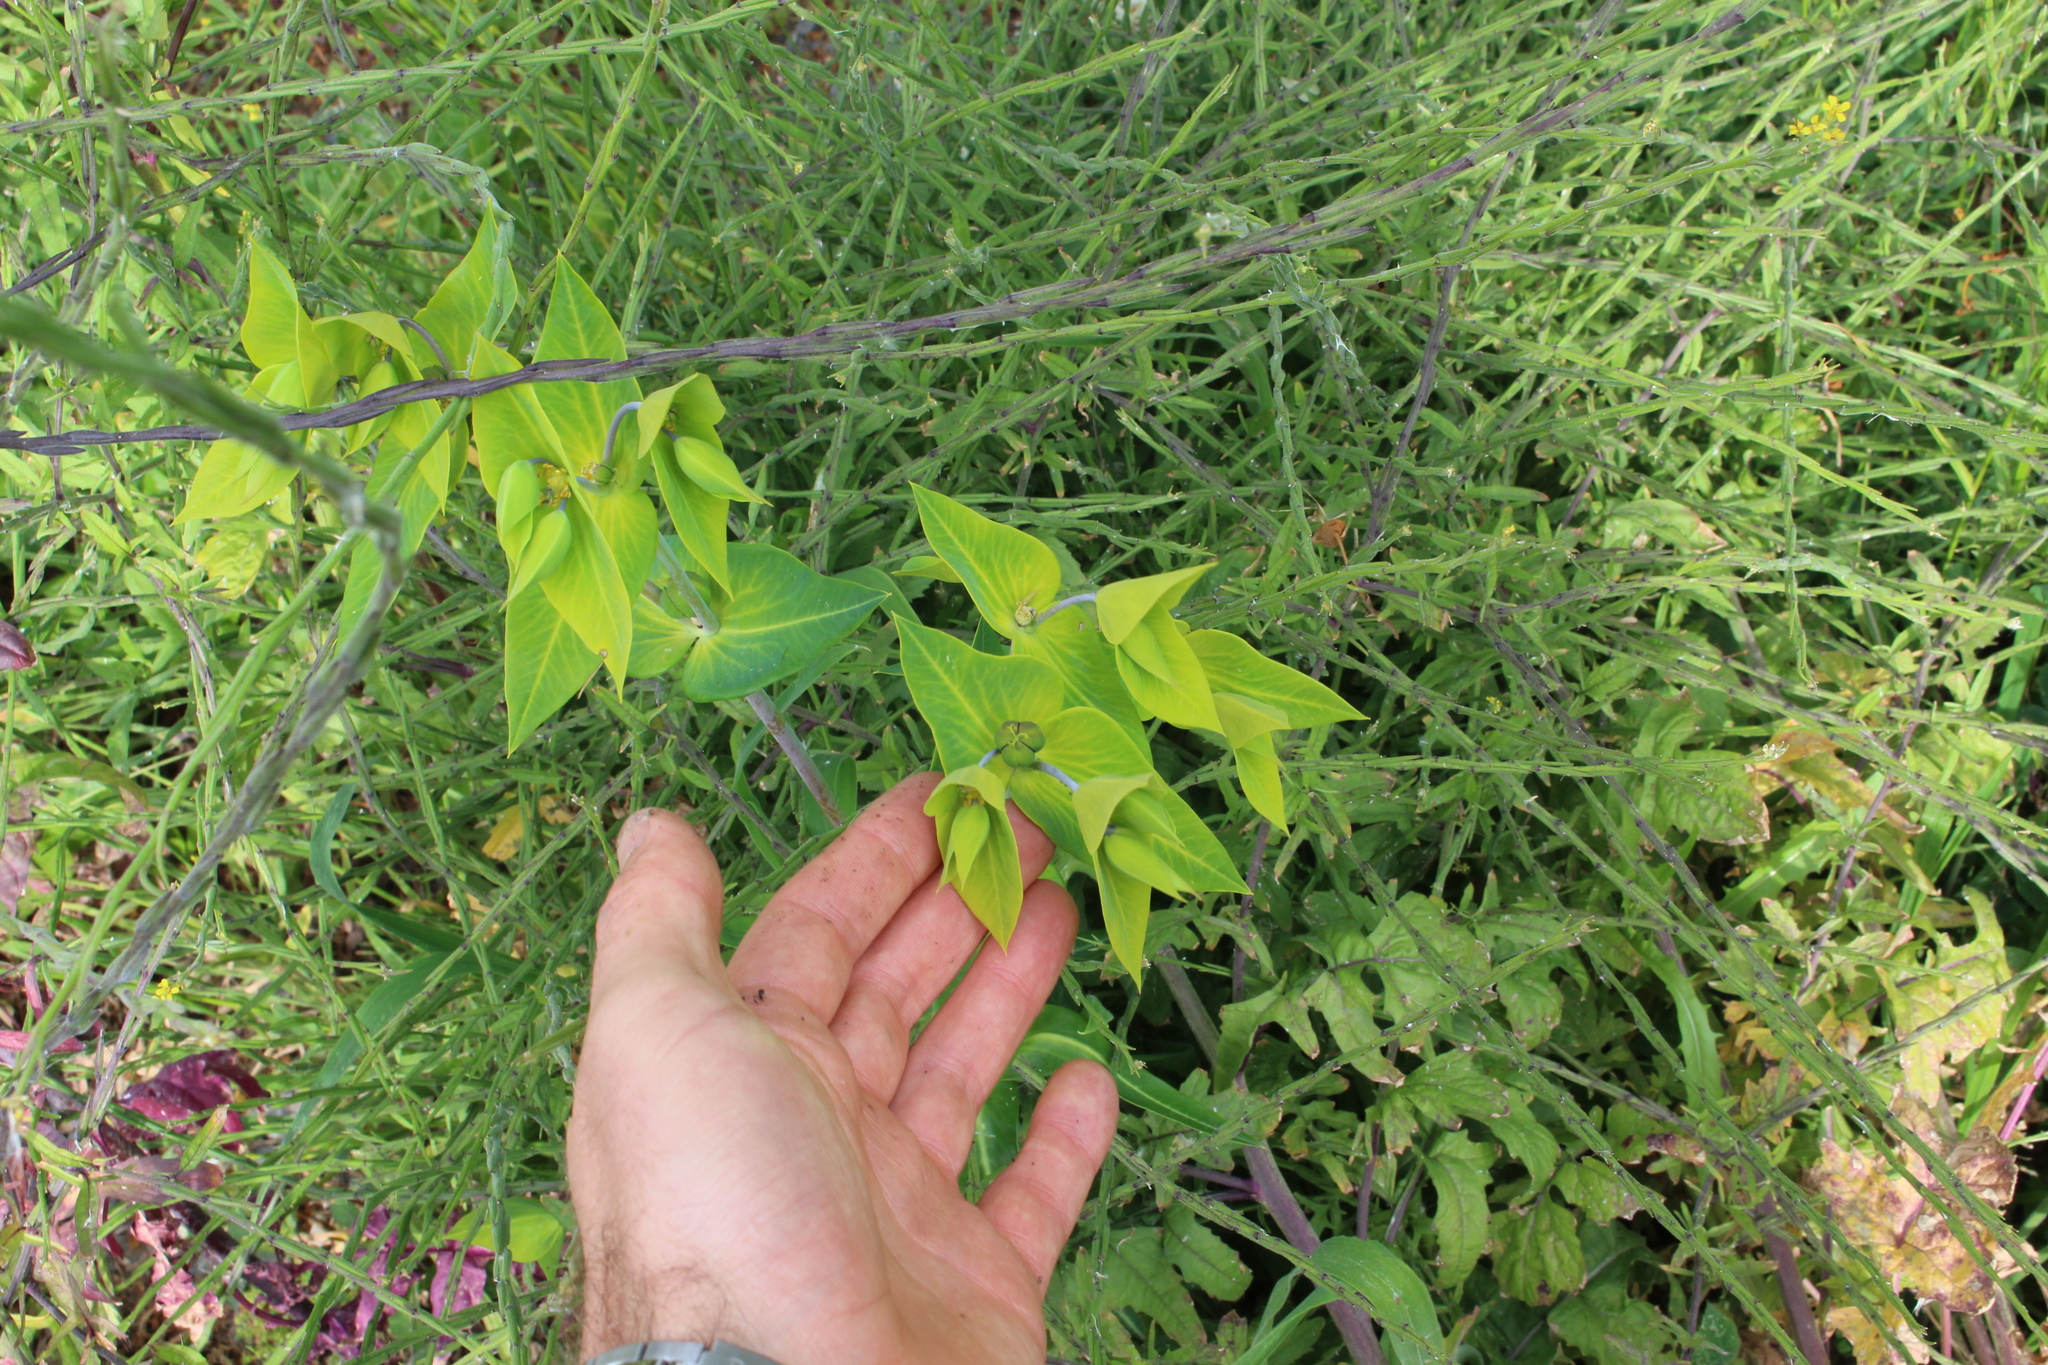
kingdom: Plantae
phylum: Tracheophyta
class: Magnoliopsida
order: Malpighiales
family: Euphorbiaceae
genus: Euphorbia
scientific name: Euphorbia lathyris
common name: Caper spurge
